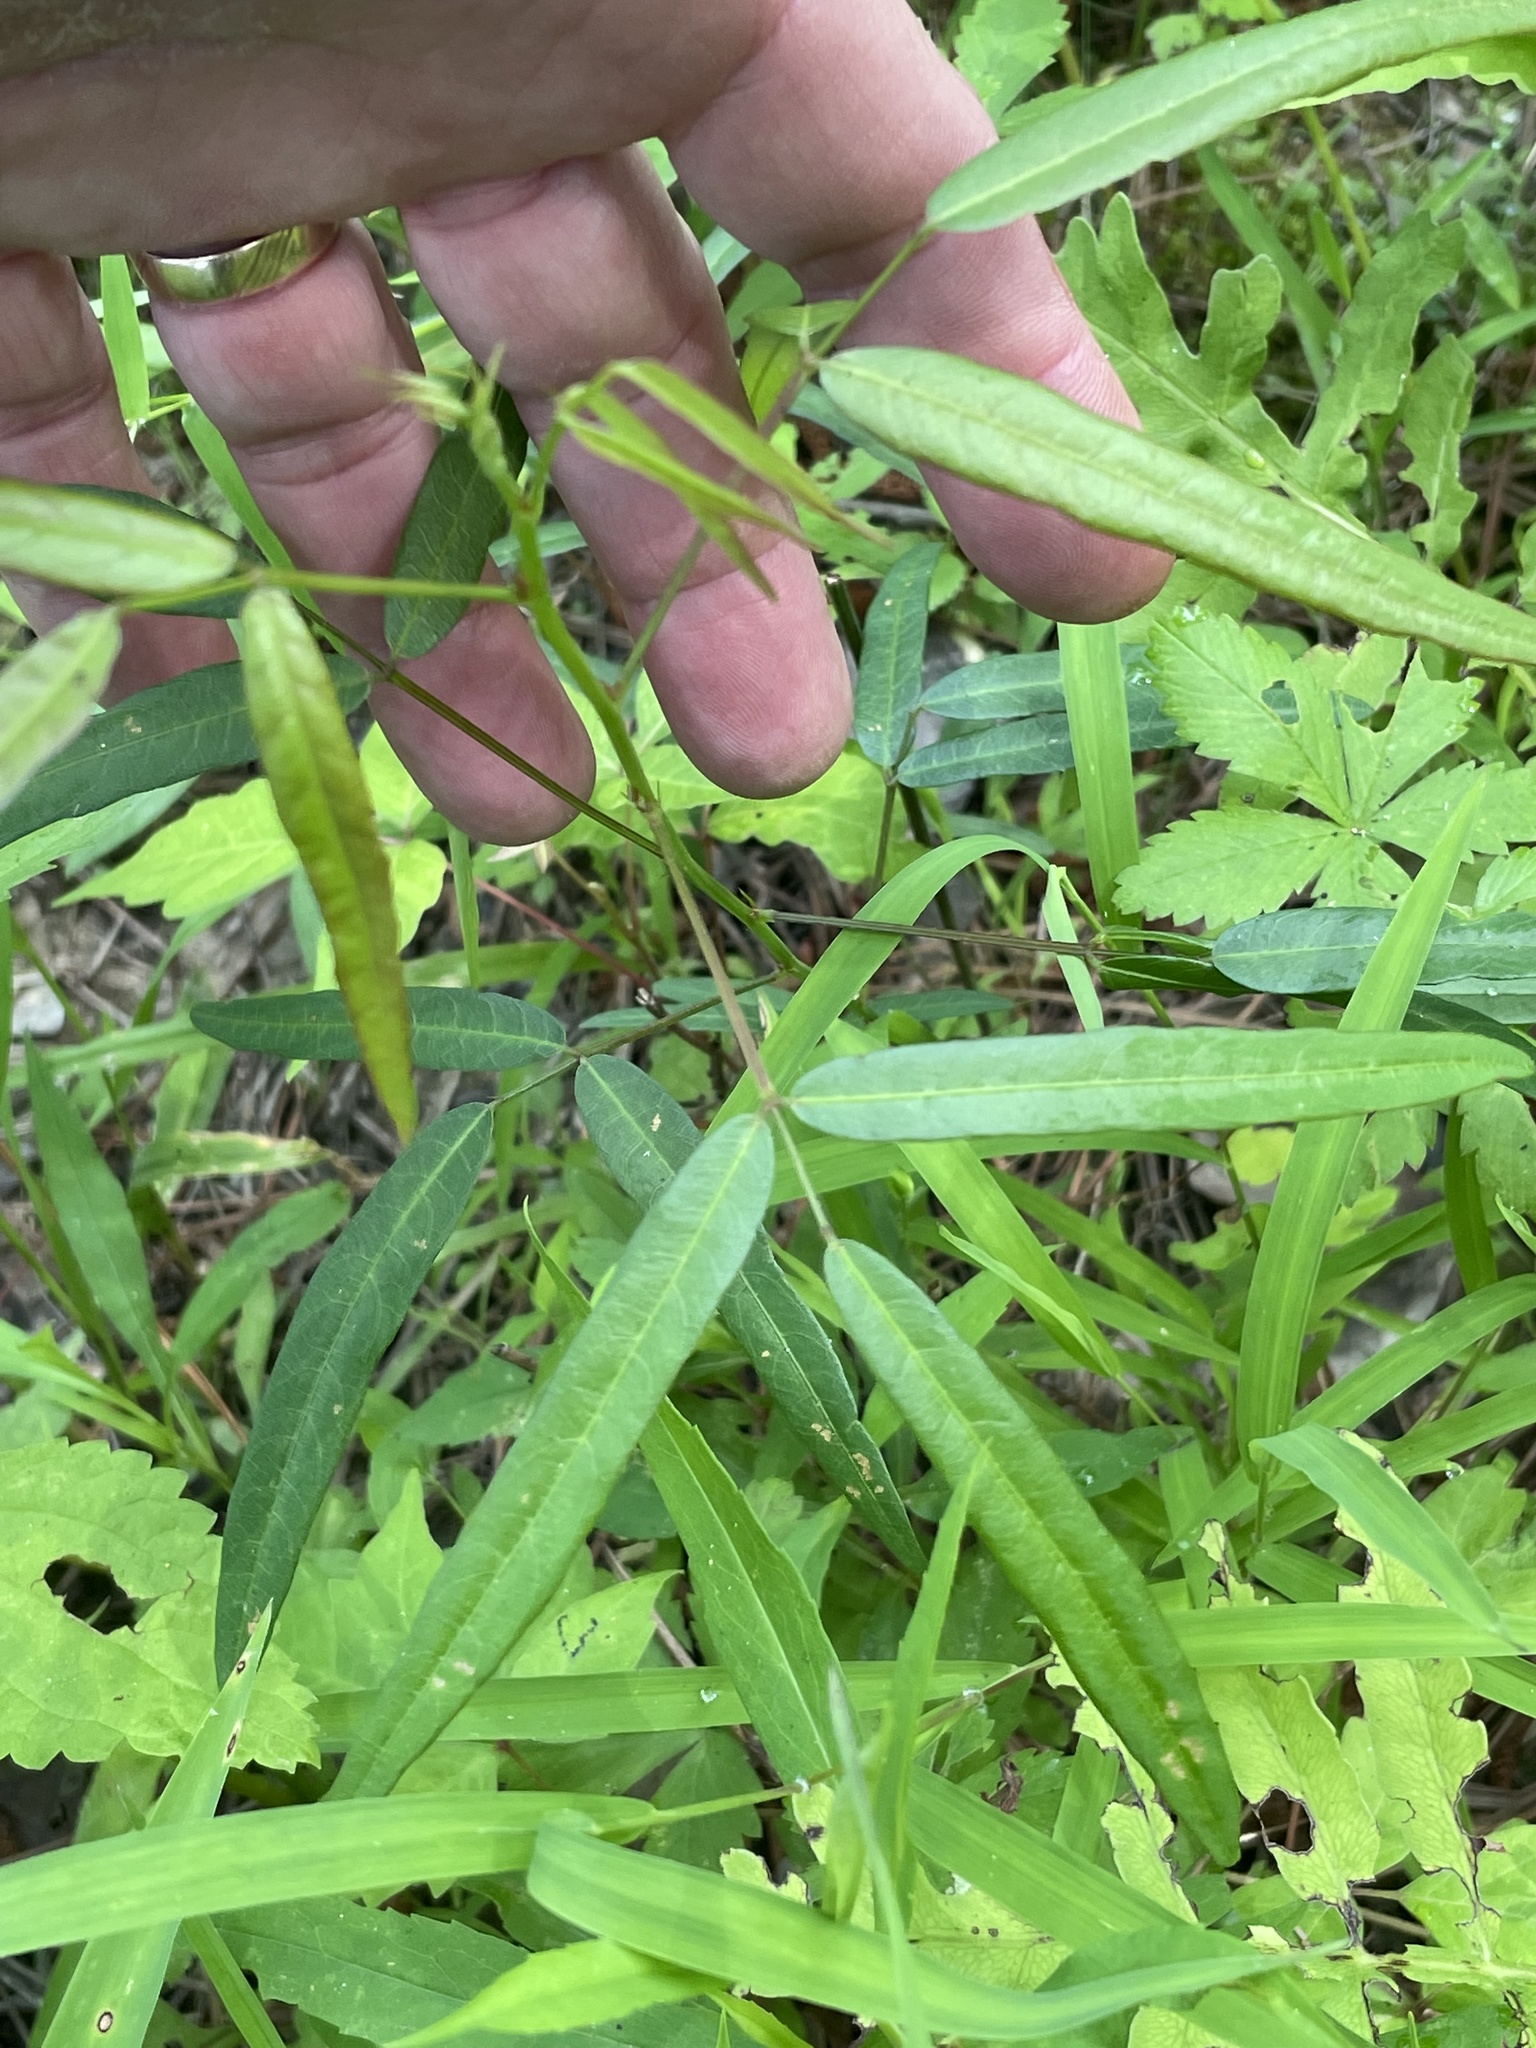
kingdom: Plantae
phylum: Tracheophyta
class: Magnoliopsida
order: Fabales
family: Fabaceae
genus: Desmodium
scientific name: Desmodium paniculatum
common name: Panicled tick-clover
